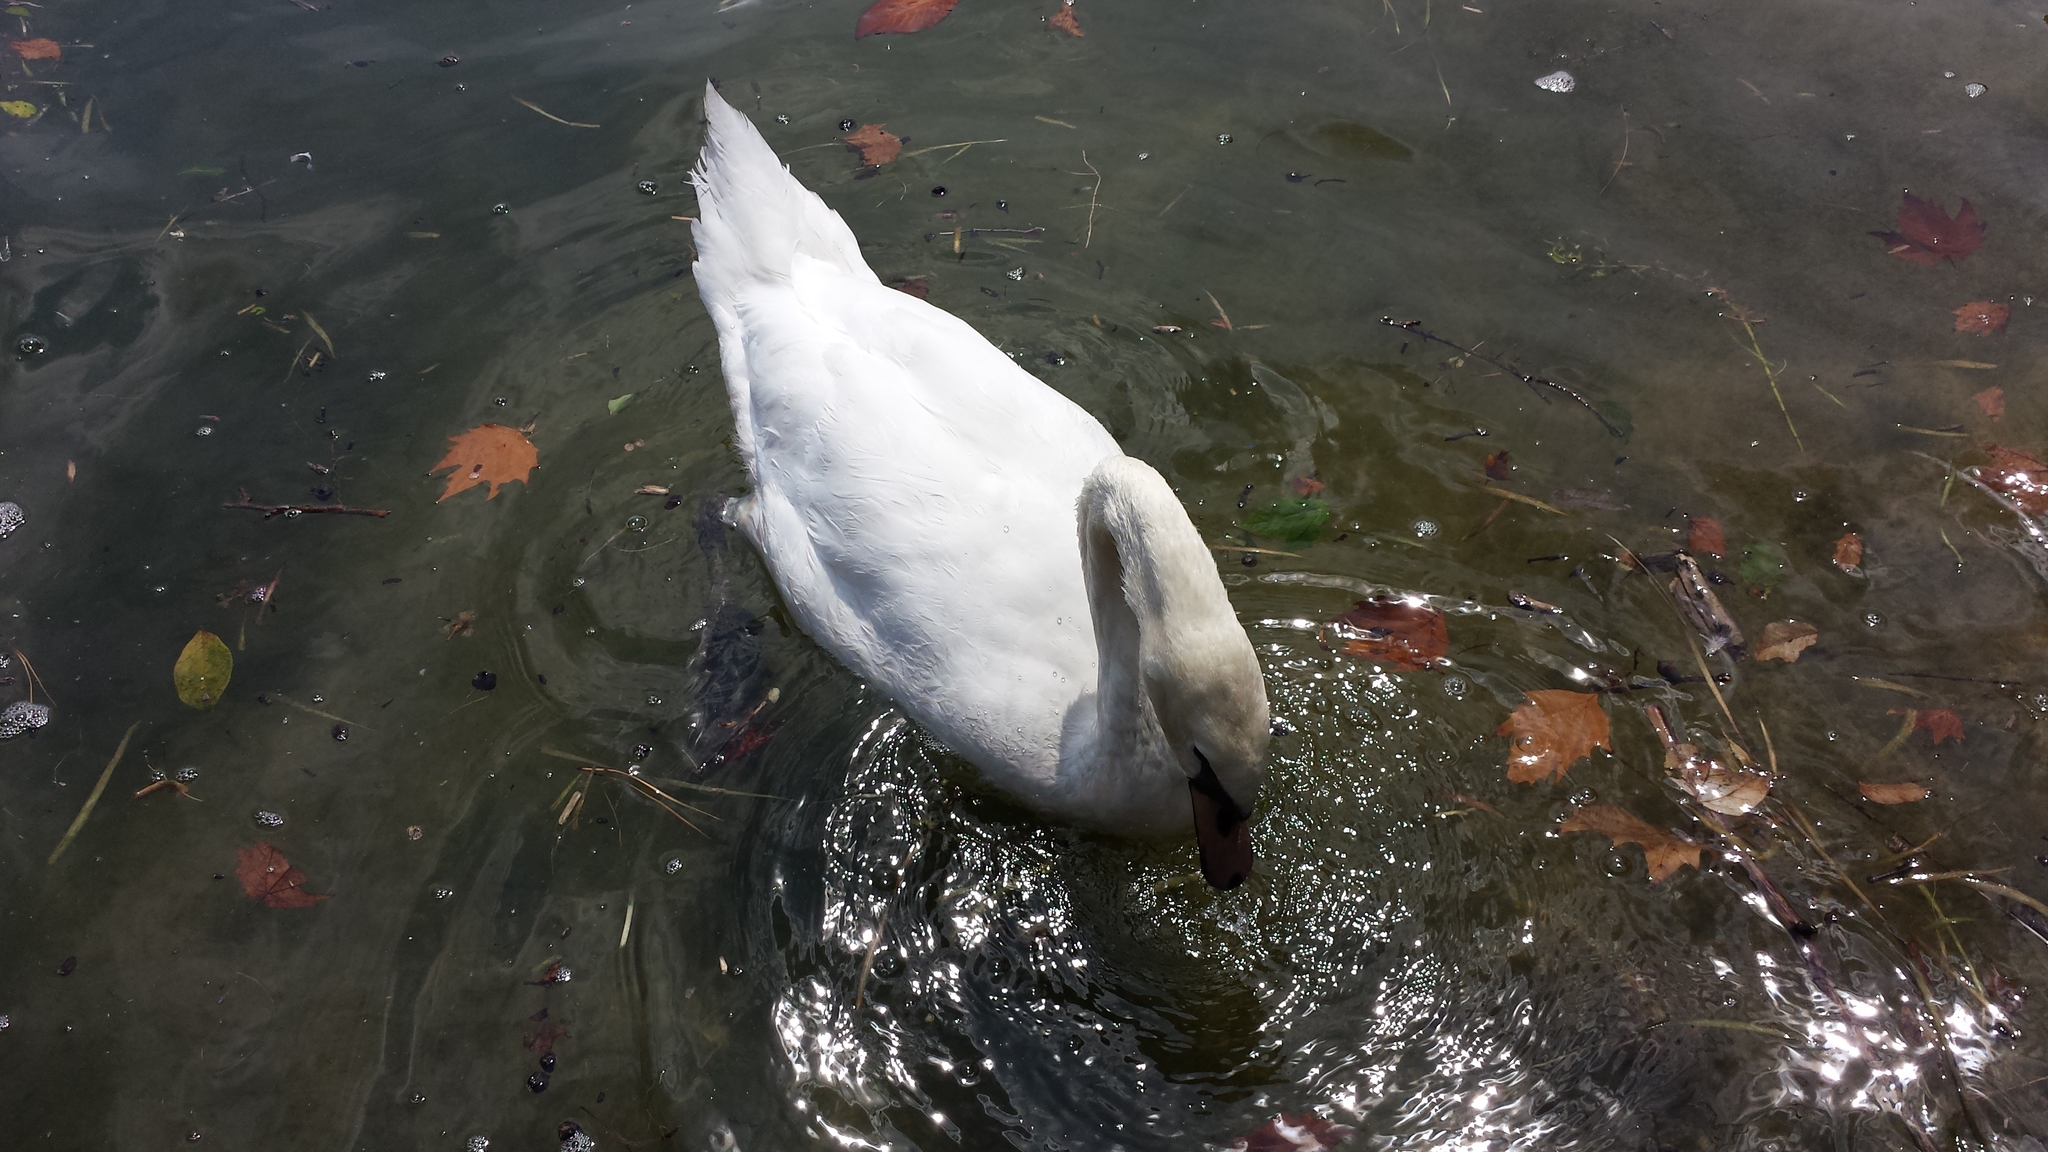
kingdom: Animalia
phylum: Chordata
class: Aves
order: Anseriformes
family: Anatidae
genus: Cygnus
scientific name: Cygnus olor
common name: Mute swan
